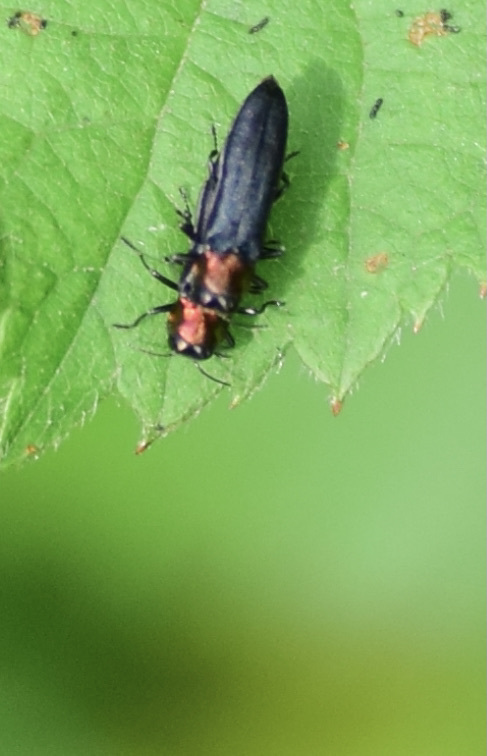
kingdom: Animalia
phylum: Arthropoda
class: Insecta
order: Coleoptera
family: Buprestidae
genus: Agrilus
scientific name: Agrilus ruficollis
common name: Red-necked cane borer beetle
